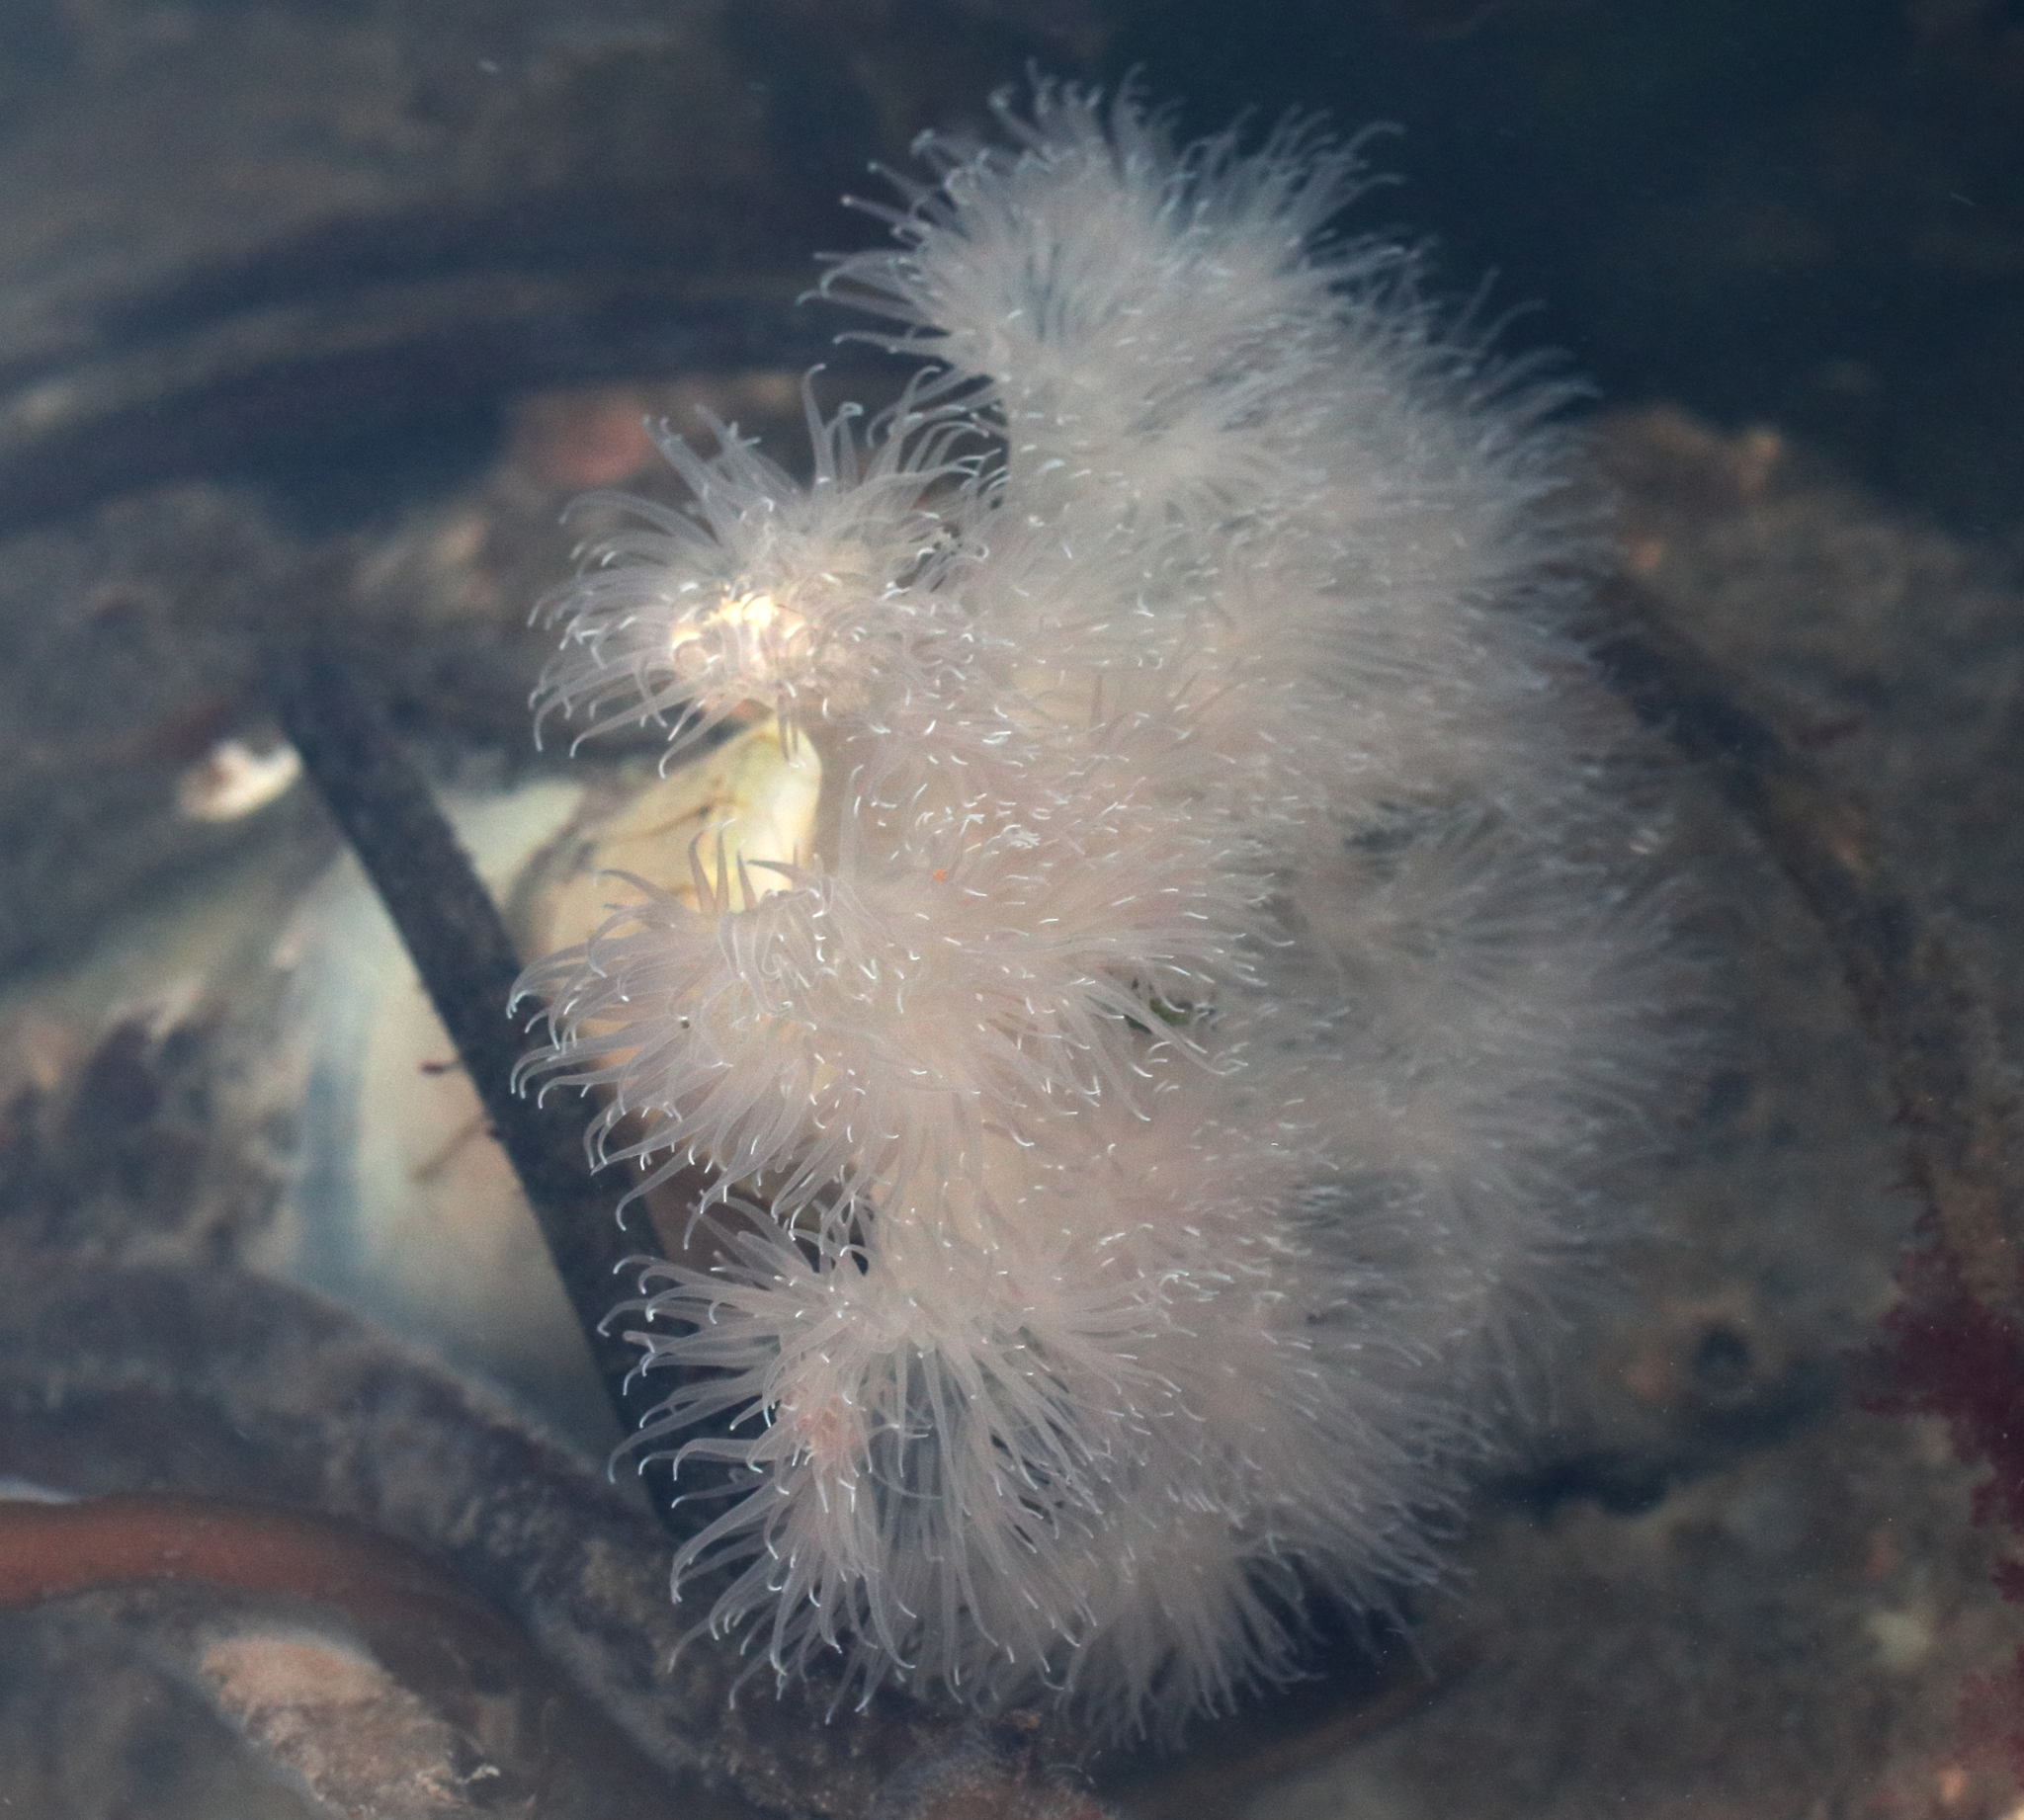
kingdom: Animalia
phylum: Cnidaria
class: Anthozoa
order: Actiniaria
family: Metridiidae
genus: Metridium
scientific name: Metridium senile
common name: Clonal plumose anemone
